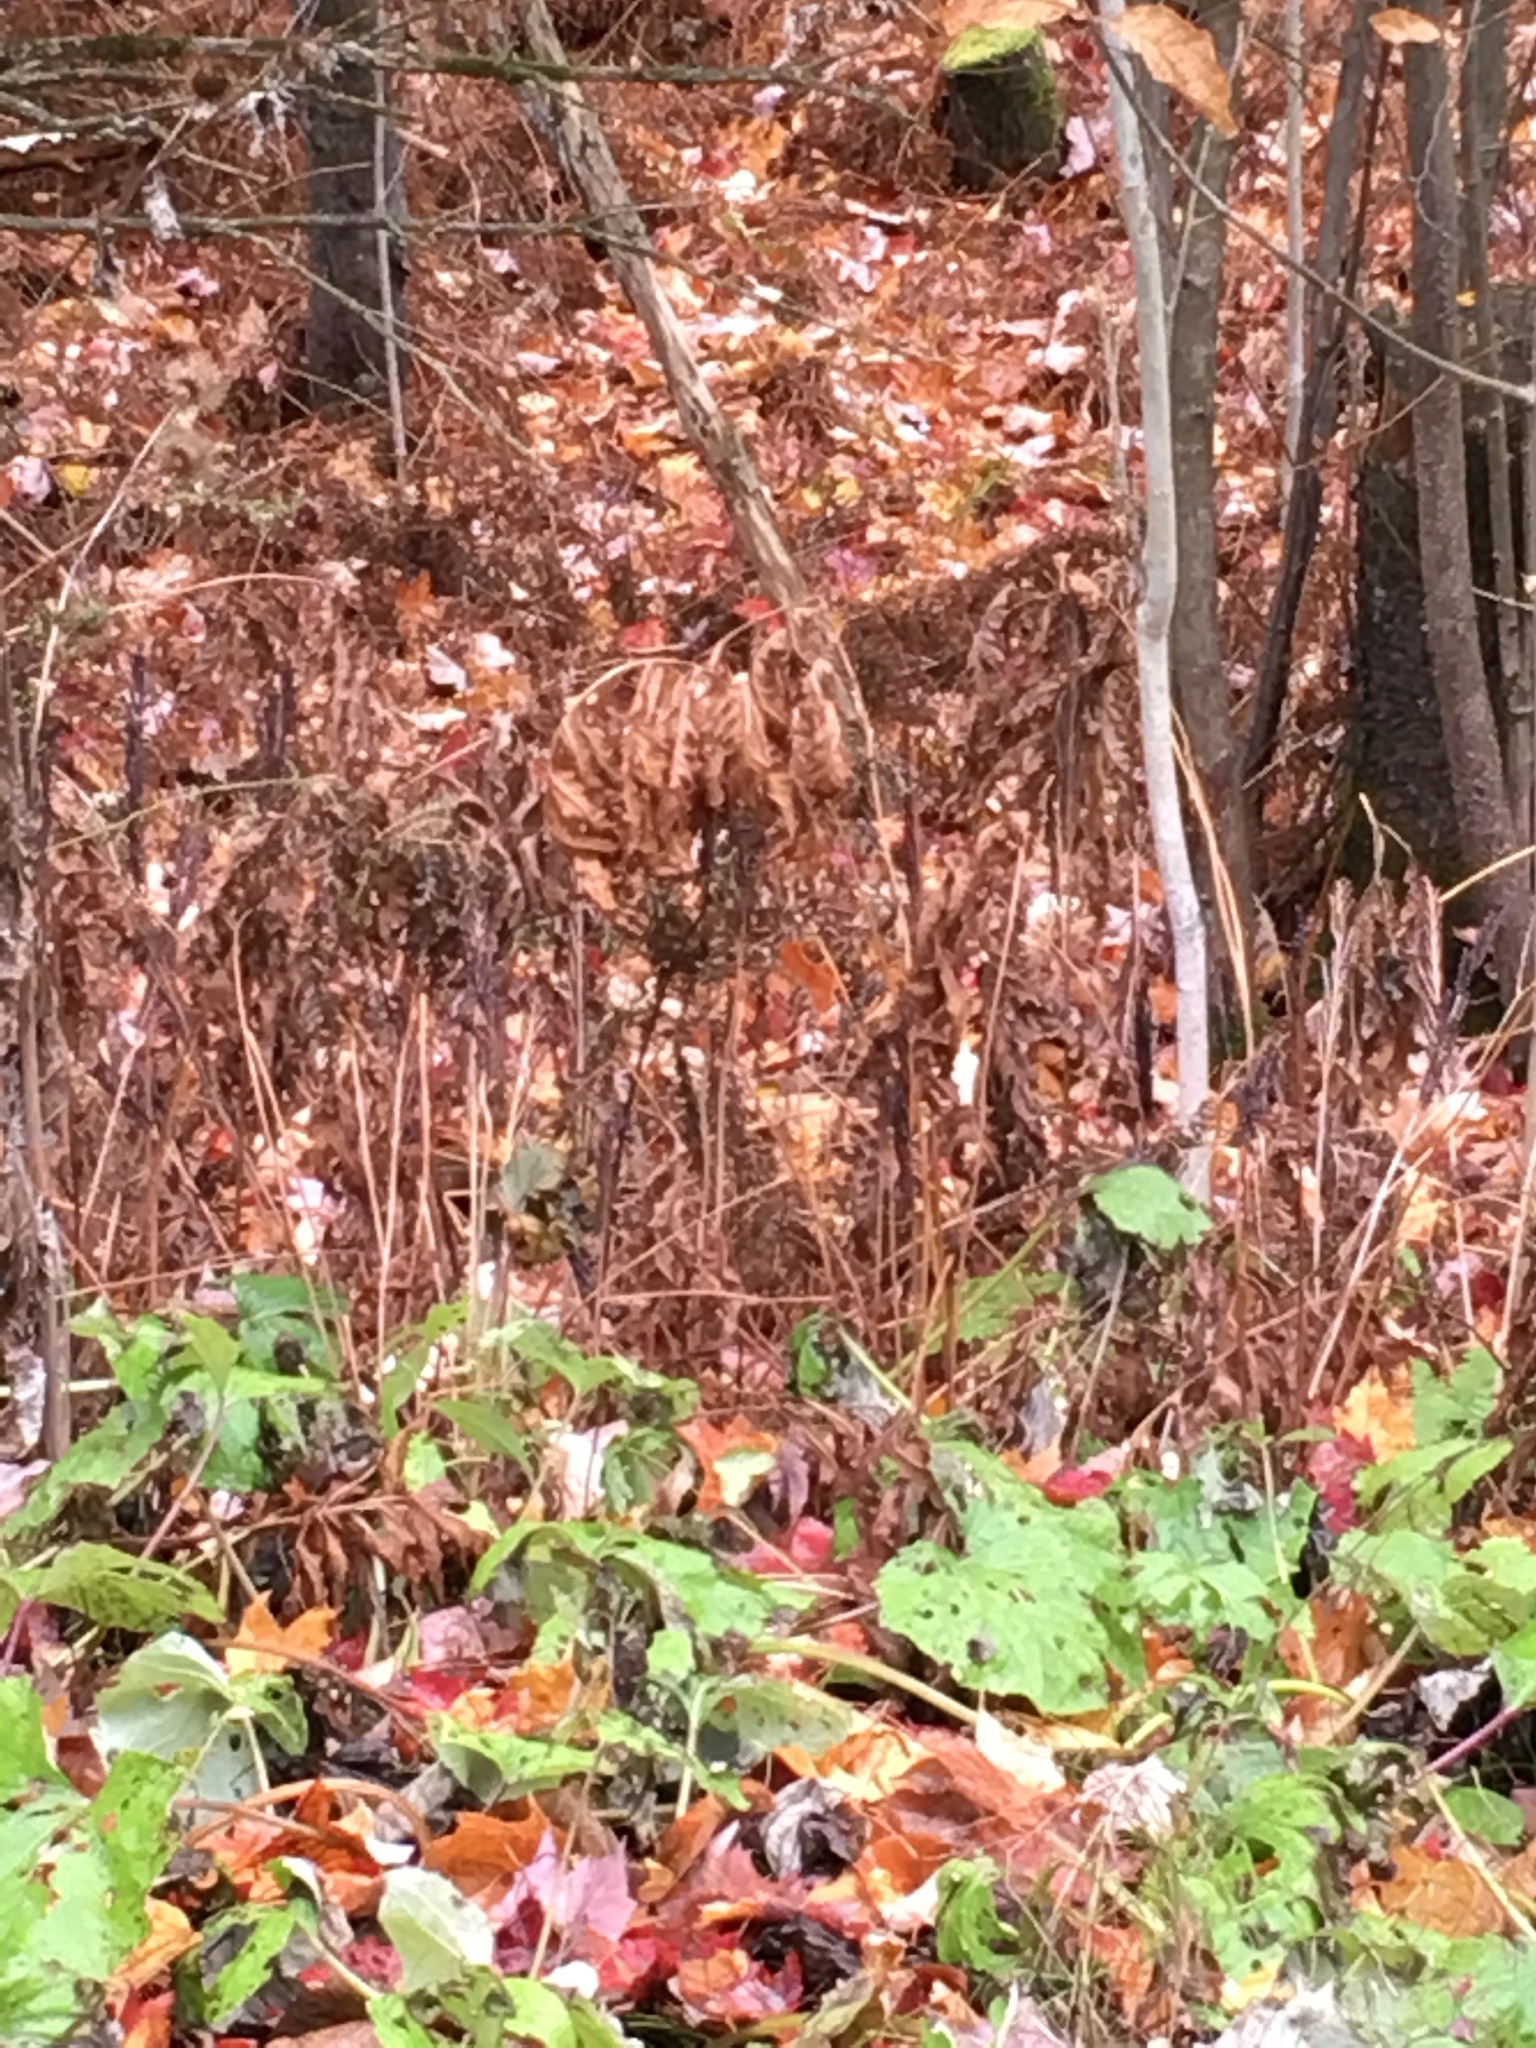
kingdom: Plantae
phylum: Tracheophyta
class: Polypodiopsida
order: Polypodiales
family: Onocleaceae
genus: Onoclea
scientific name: Onoclea sensibilis
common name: Sensitive fern
